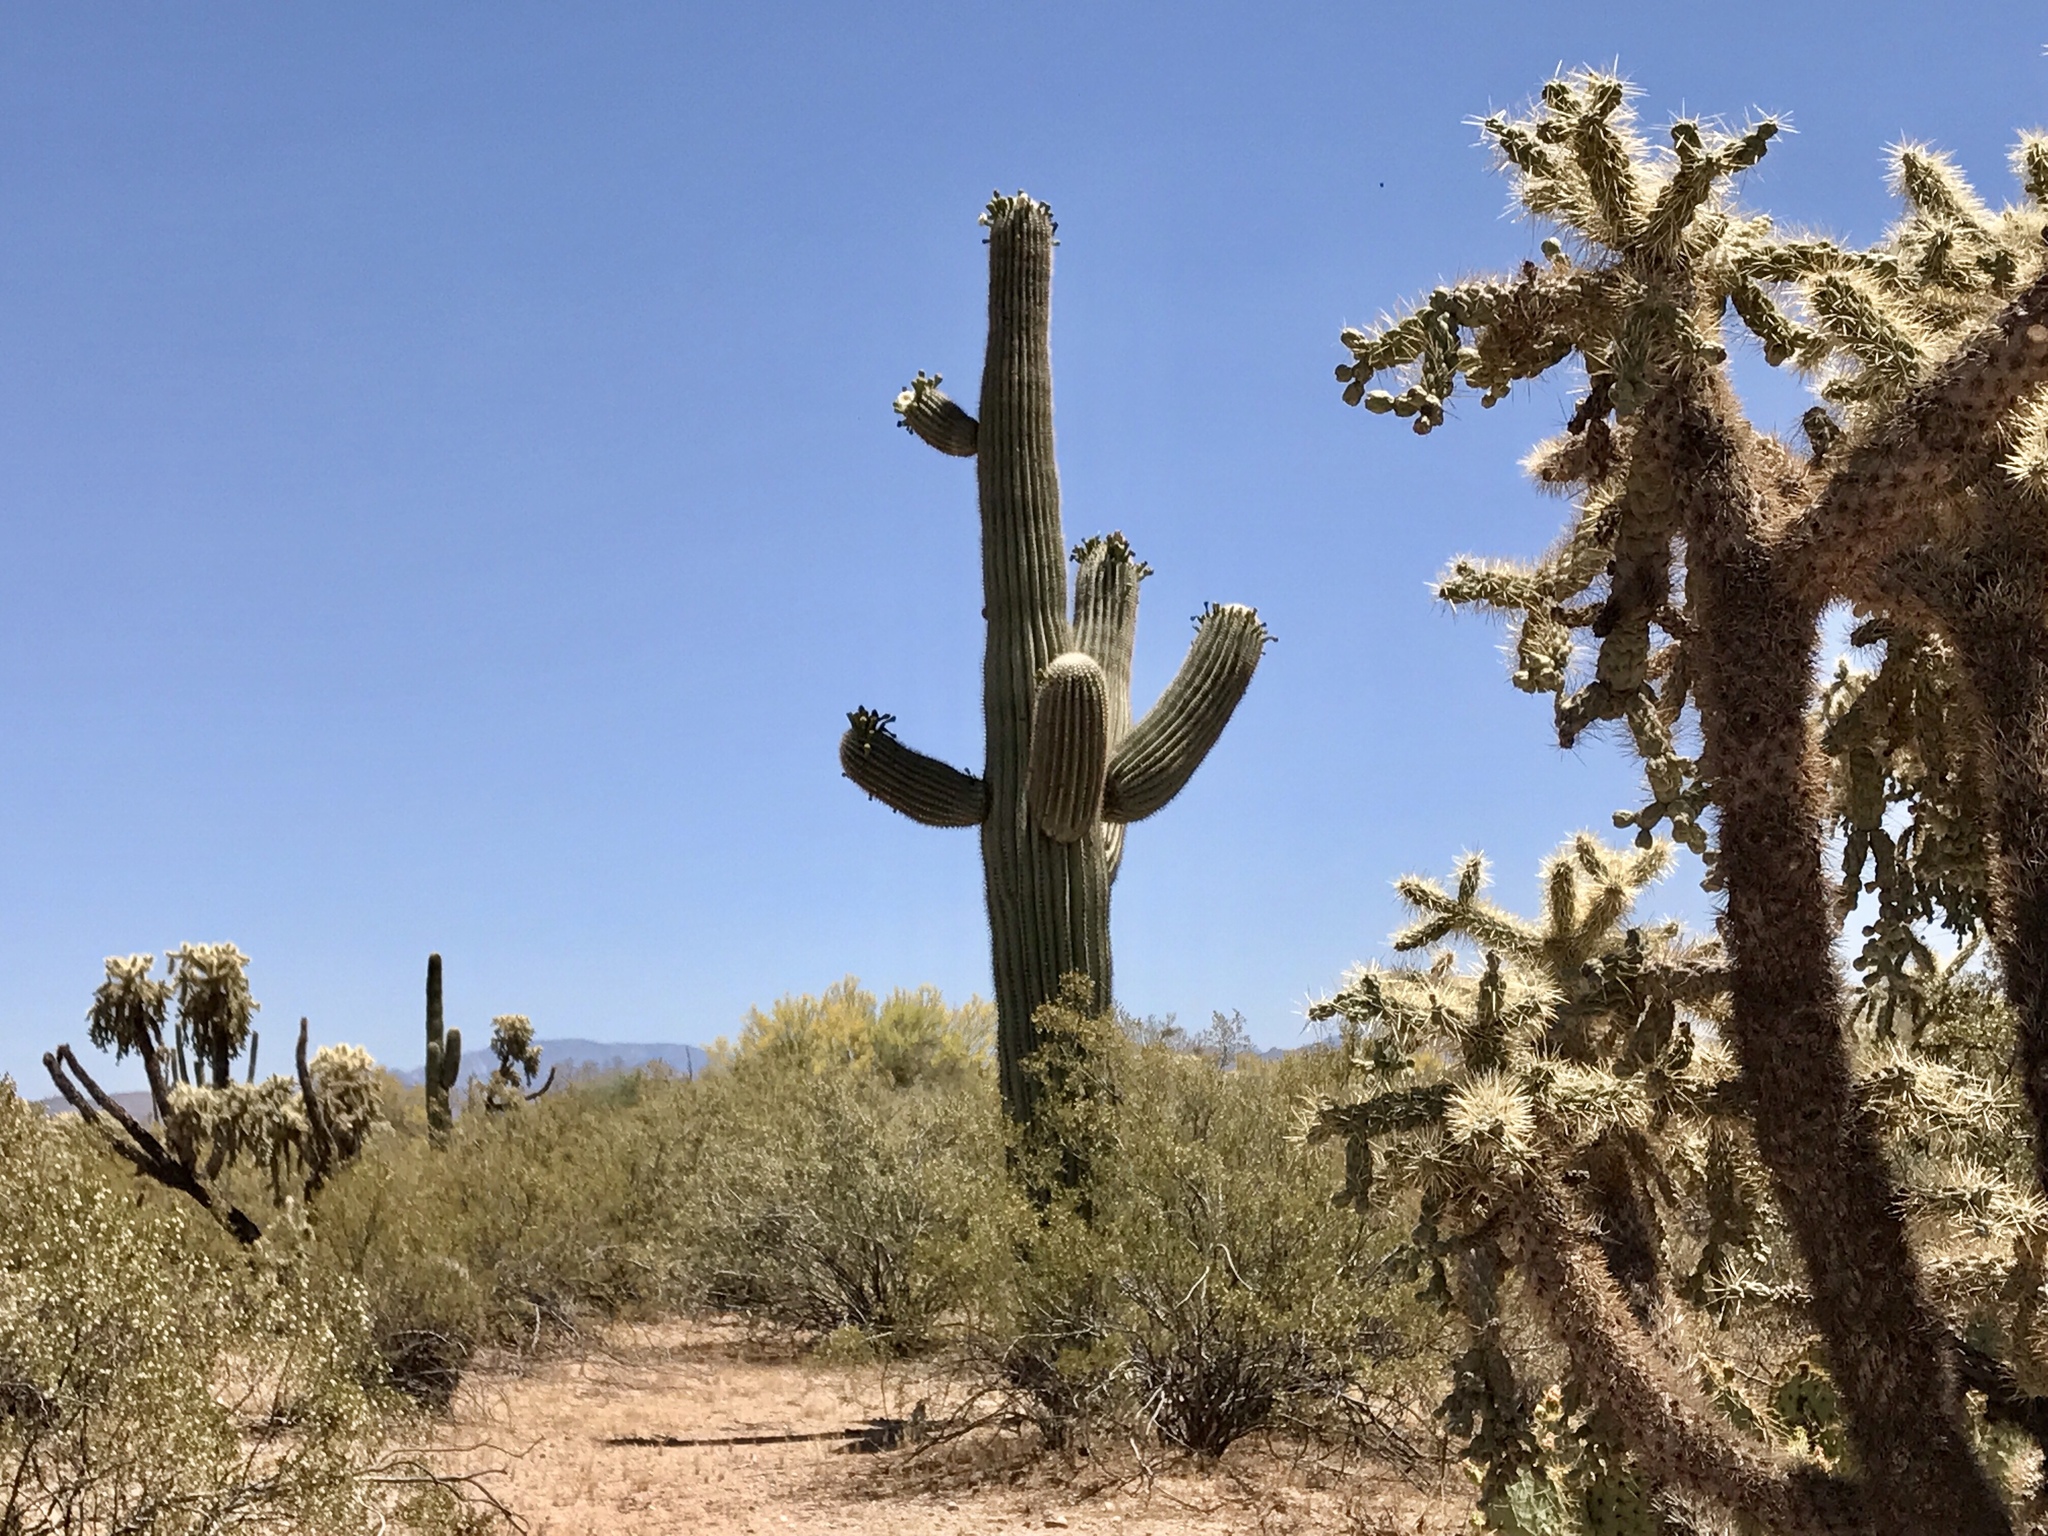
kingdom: Plantae
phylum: Tracheophyta
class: Magnoliopsida
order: Caryophyllales
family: Cactaceae
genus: Carnegiea
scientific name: Carnegiea gigantea
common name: Saguaro
